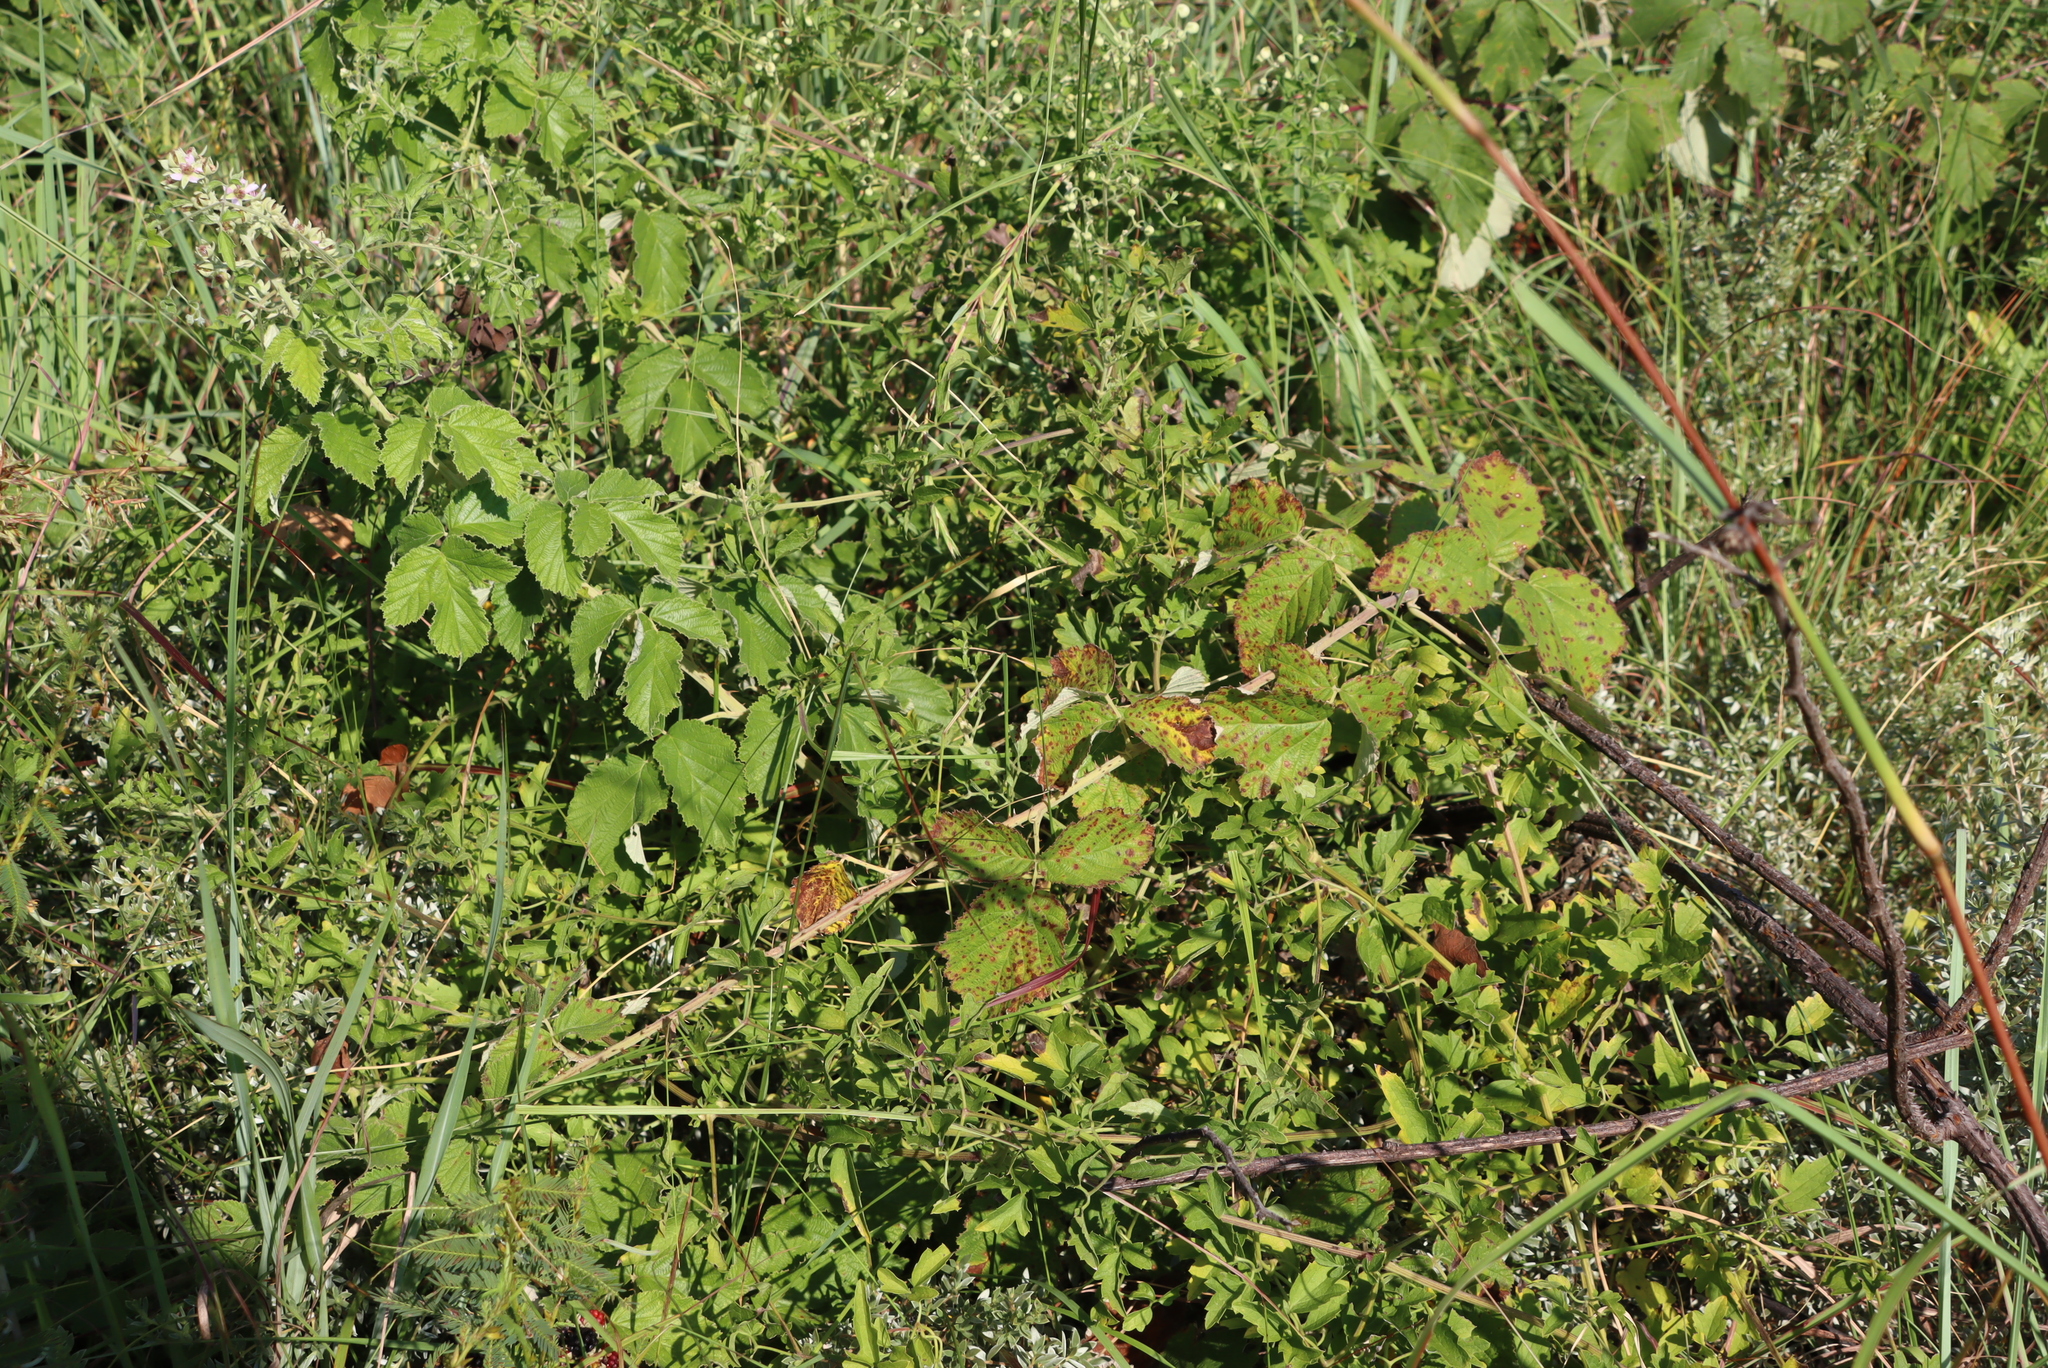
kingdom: Plantae
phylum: Tracheophyta
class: Magnoliopsida
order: Rosales
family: Rosaceae
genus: Rubus
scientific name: Rubus rigidus
